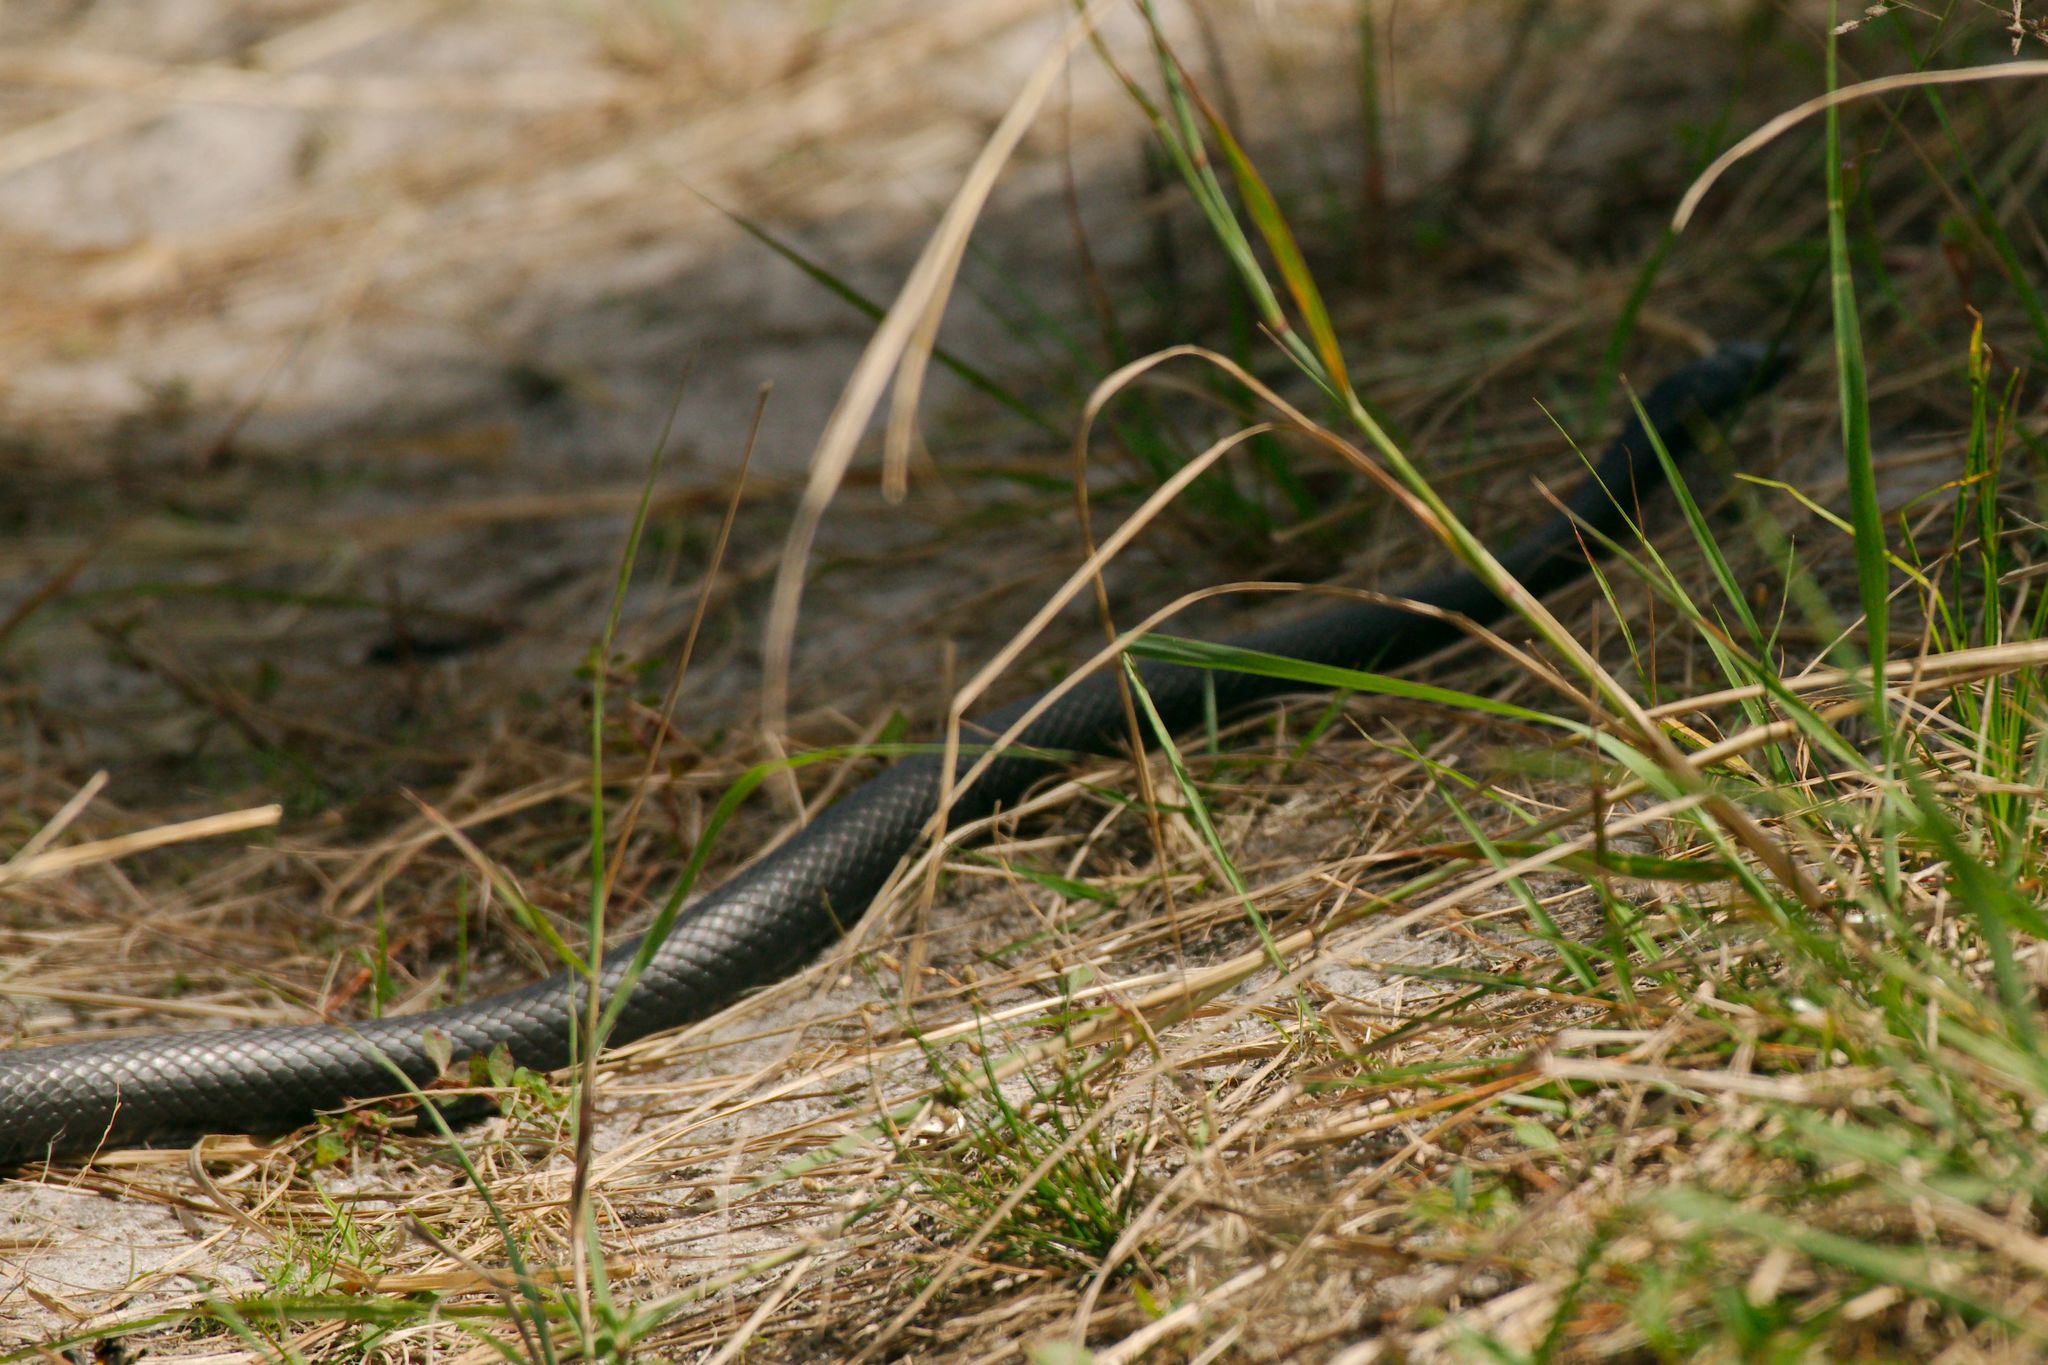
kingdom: Animalia
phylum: Chordata
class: Squamata
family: Colubridae
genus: Coluber
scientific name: Coluber constrictor
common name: Eastern racer
